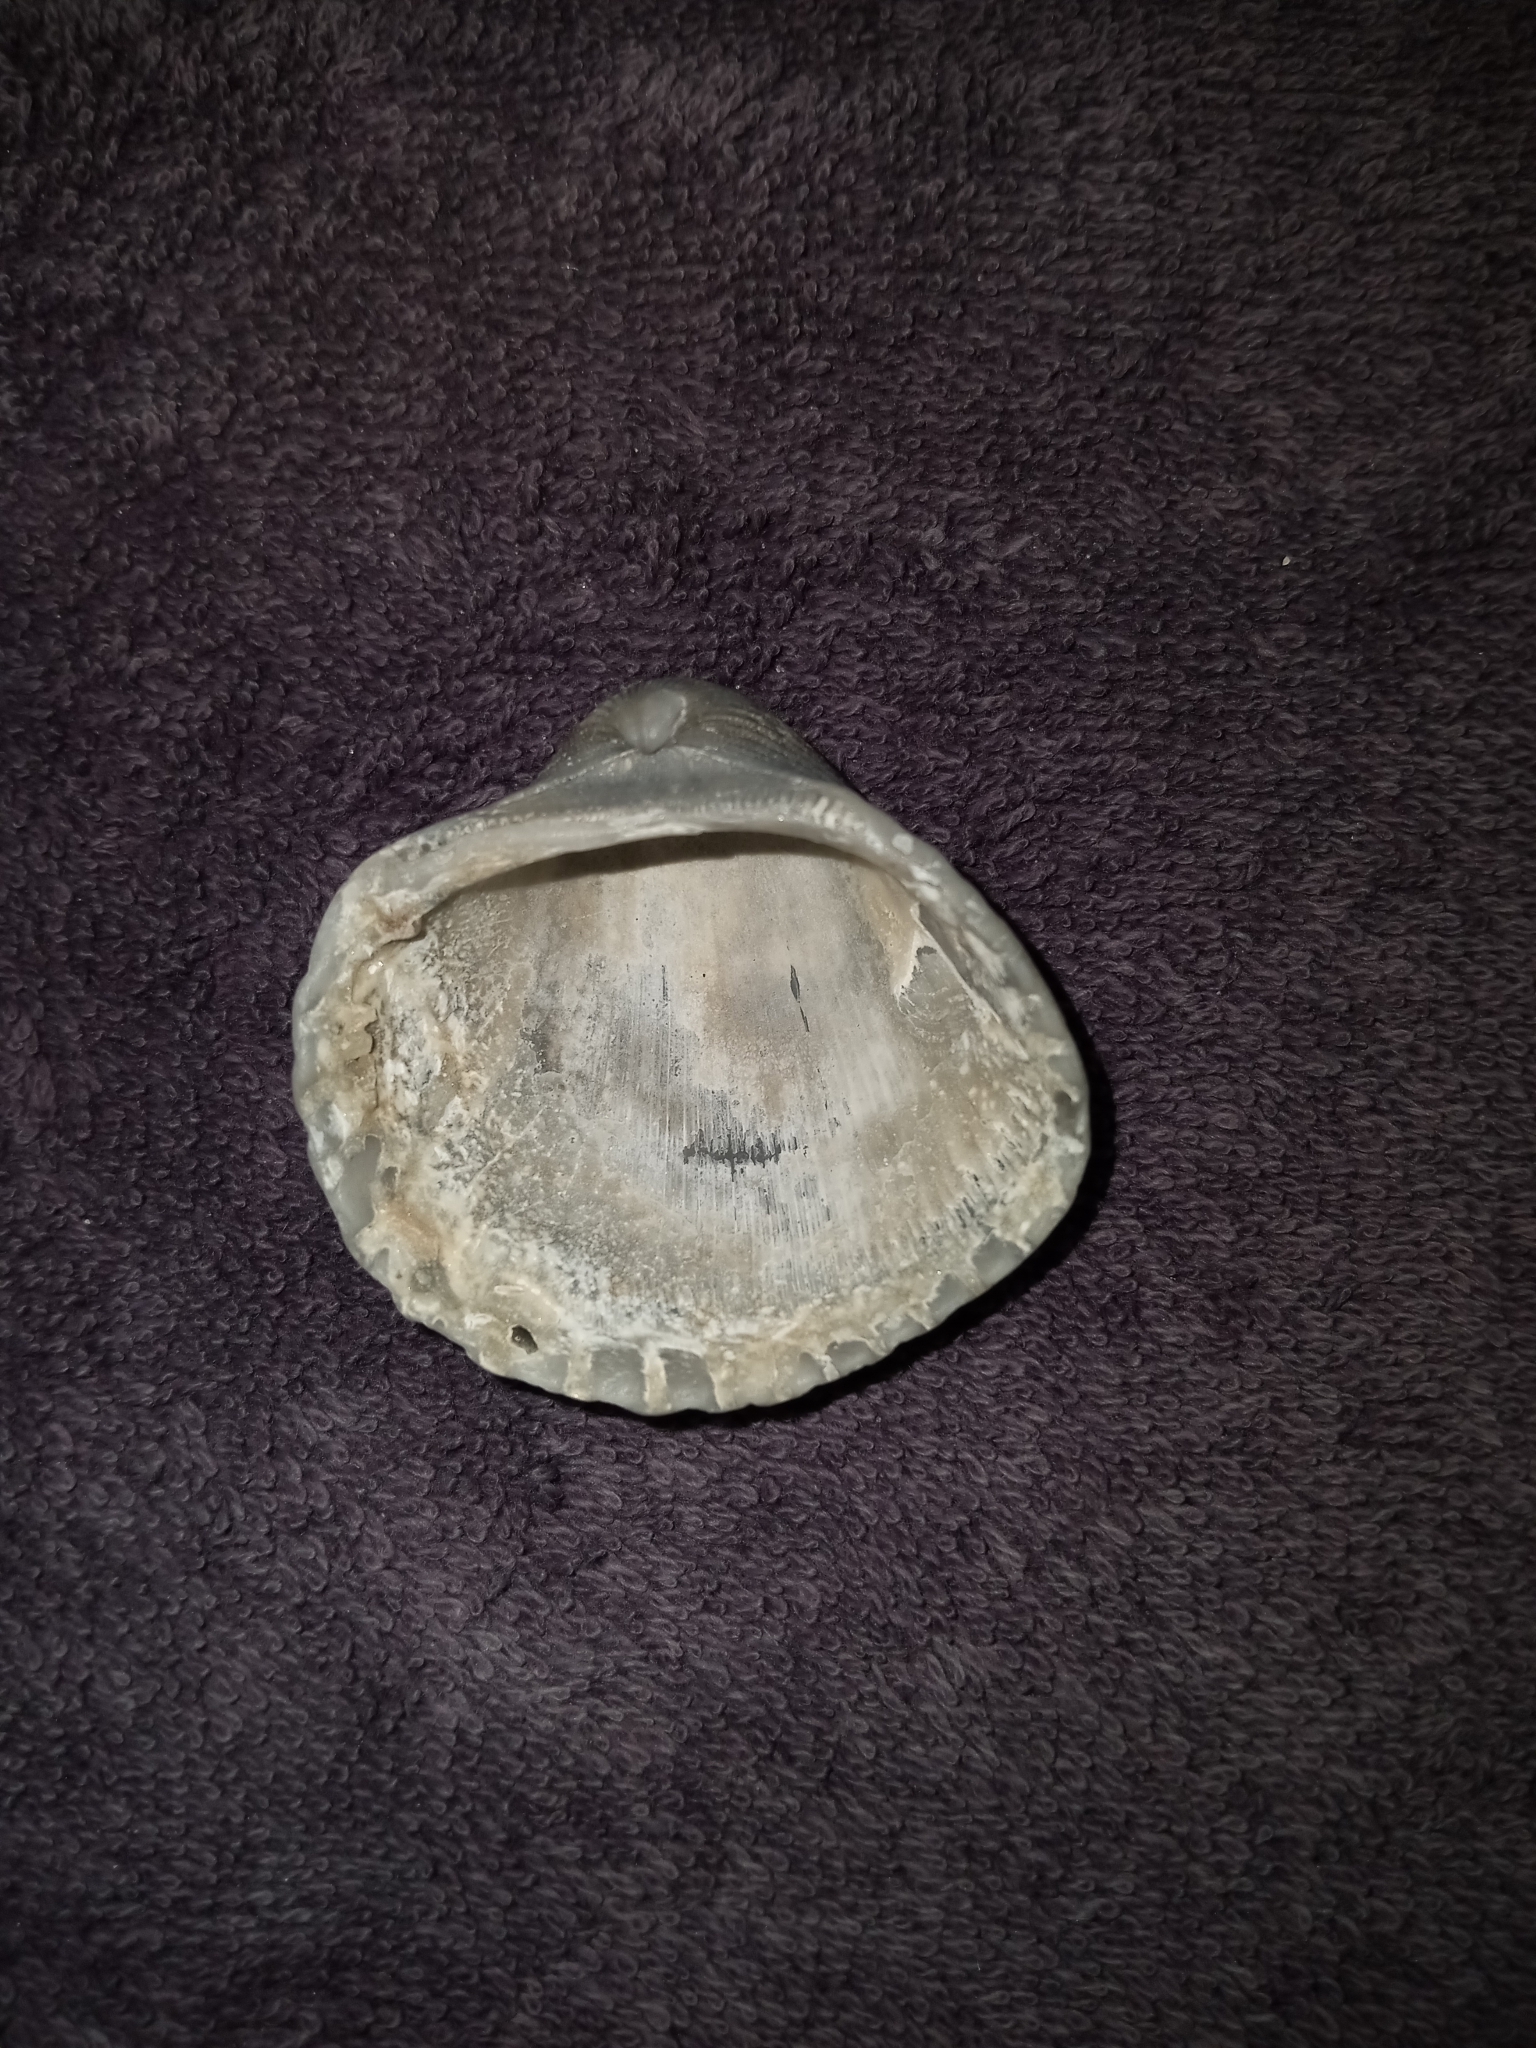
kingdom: Animalia
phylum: Mollusca
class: Bivalvia
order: Arcida
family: Arcidae
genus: Anadara
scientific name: Anadara brasiliana
